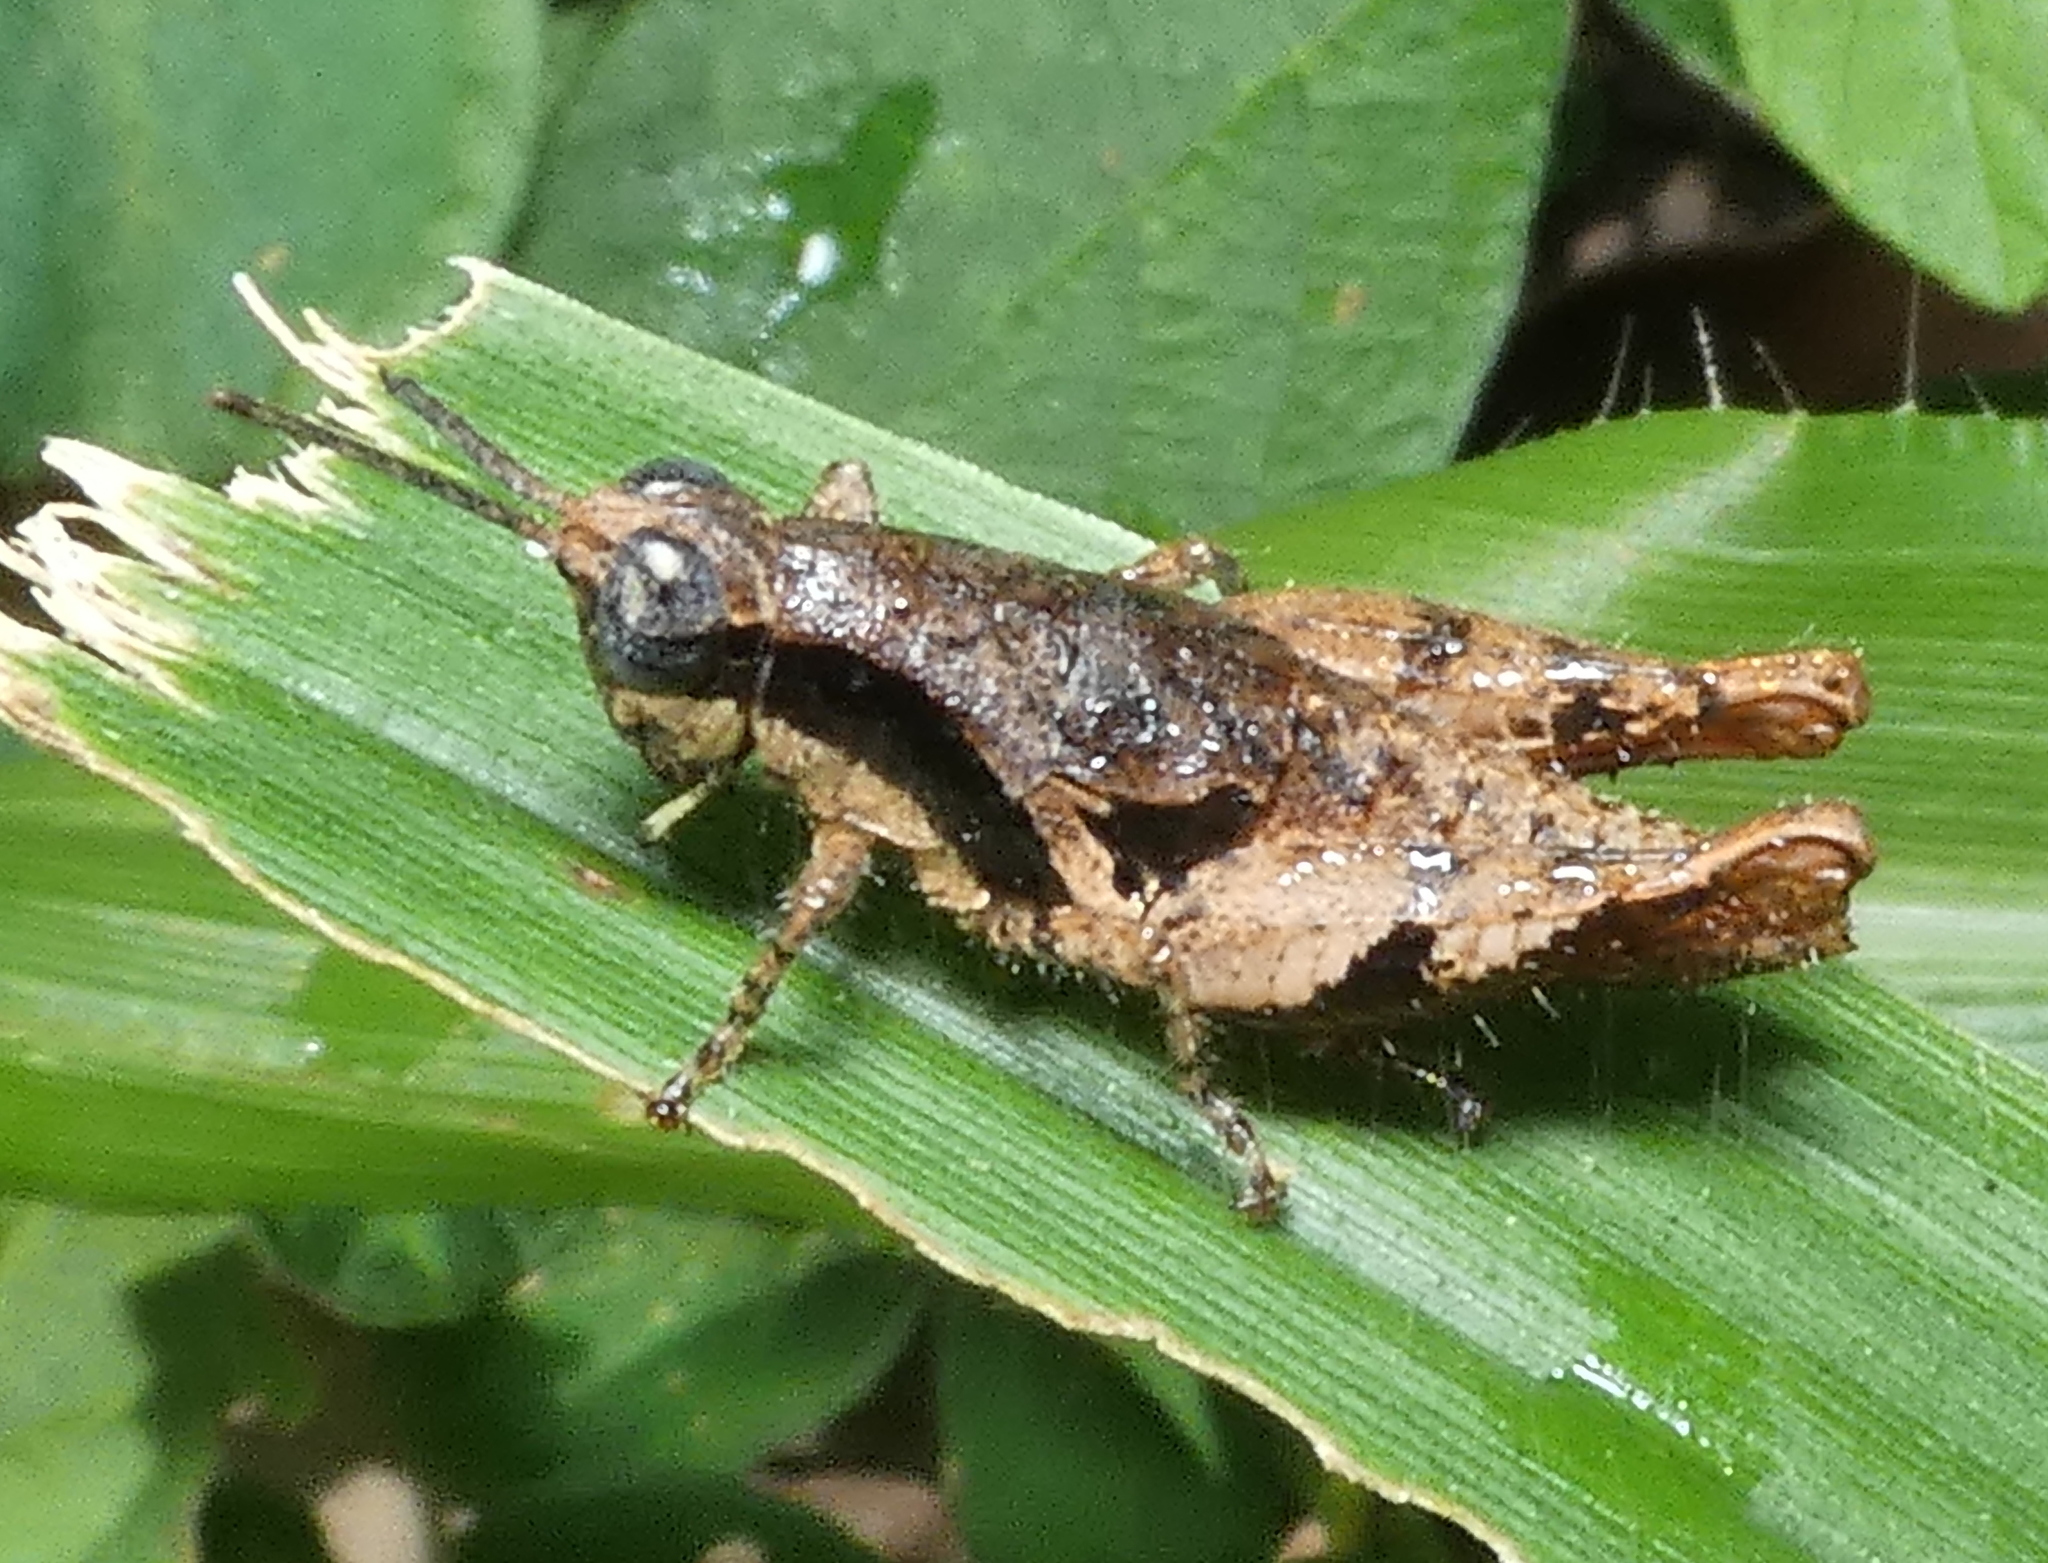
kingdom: Animalia
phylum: Arthropoda
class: Insecta
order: Orthoptera
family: Acrididae
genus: Eujivarus
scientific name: Eujivarus meridionalis
